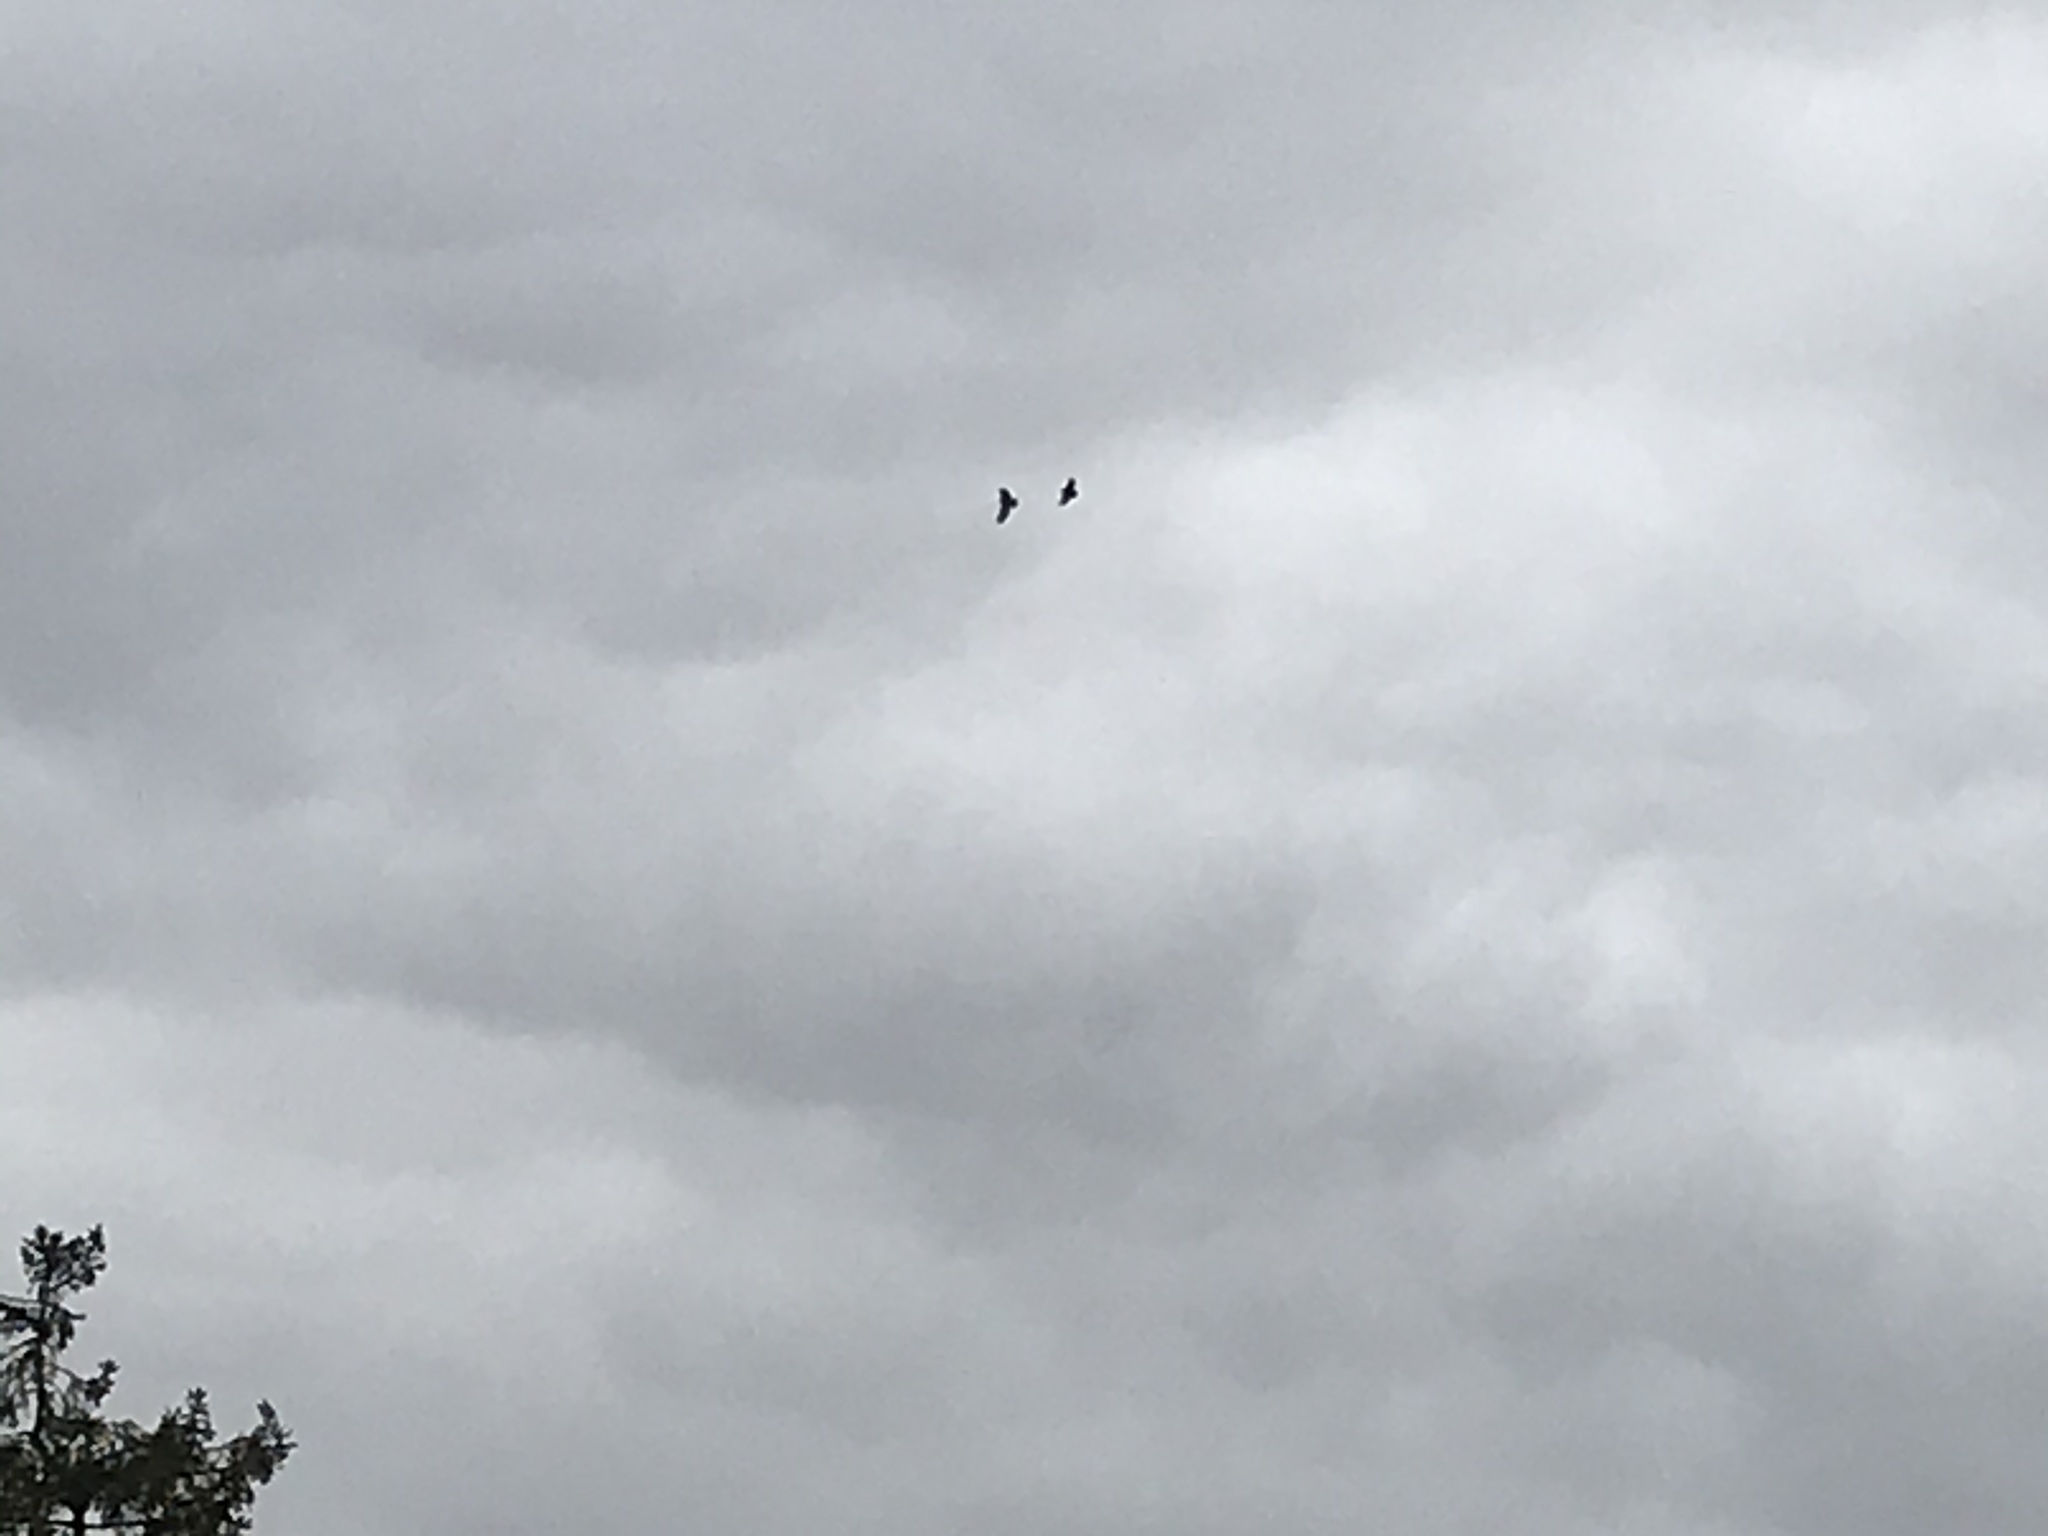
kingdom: Animalia
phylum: Chordata
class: Aves
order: Accipitriformes
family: Accipitridae
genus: Buteo
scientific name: Buteo buteo
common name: Common buzzard
